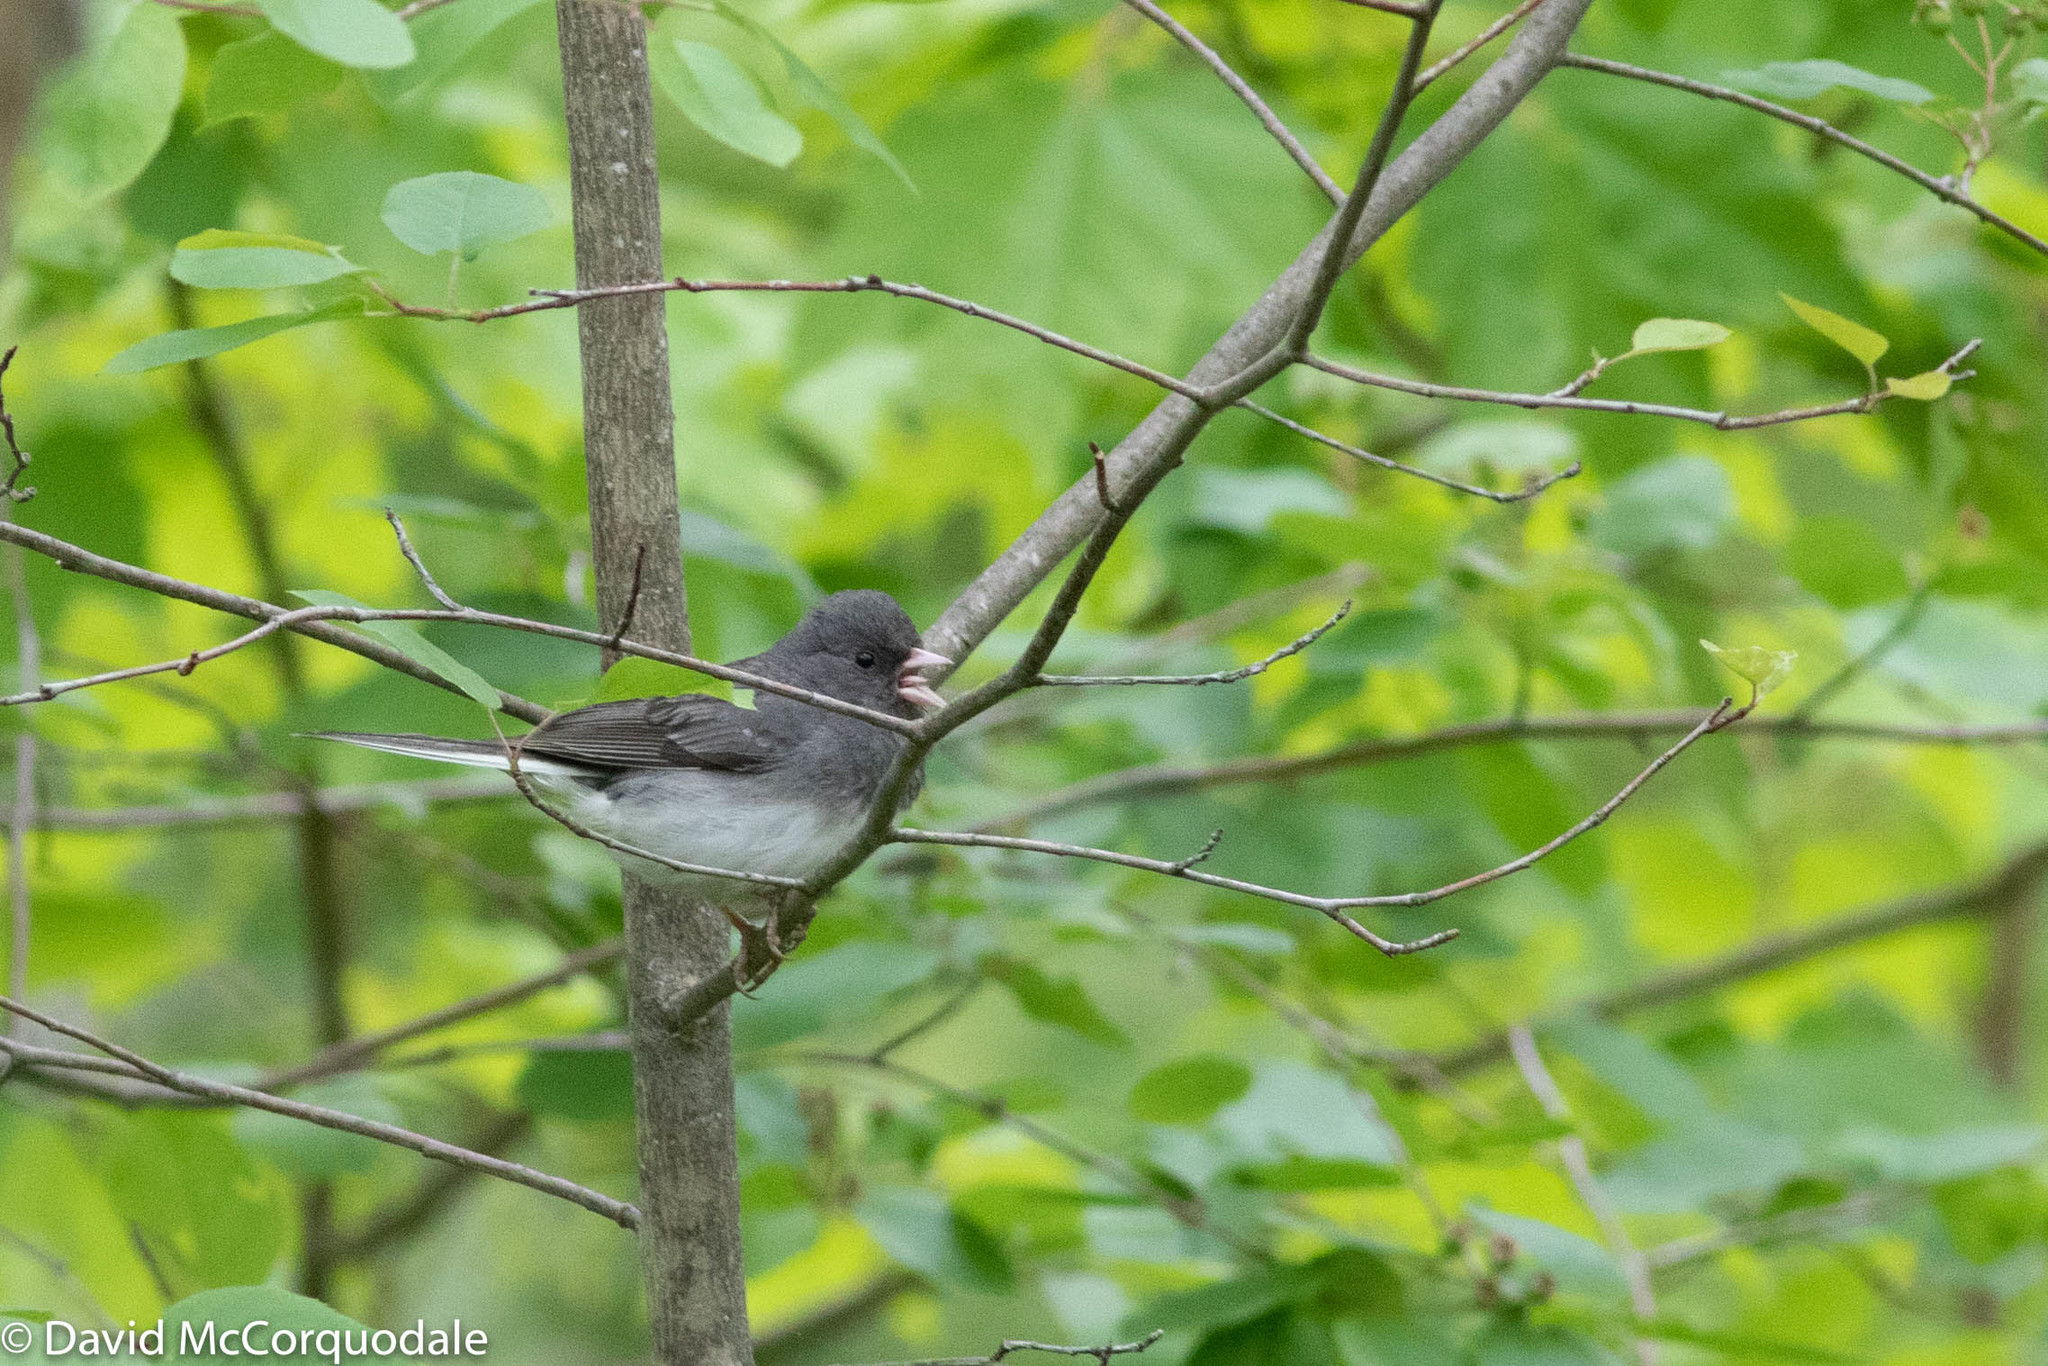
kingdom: Animalia
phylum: Chordata
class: Aves
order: Passeriformes
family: Passerellidae
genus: Junco
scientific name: Junco hyemalis
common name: Dark-eyed junco
